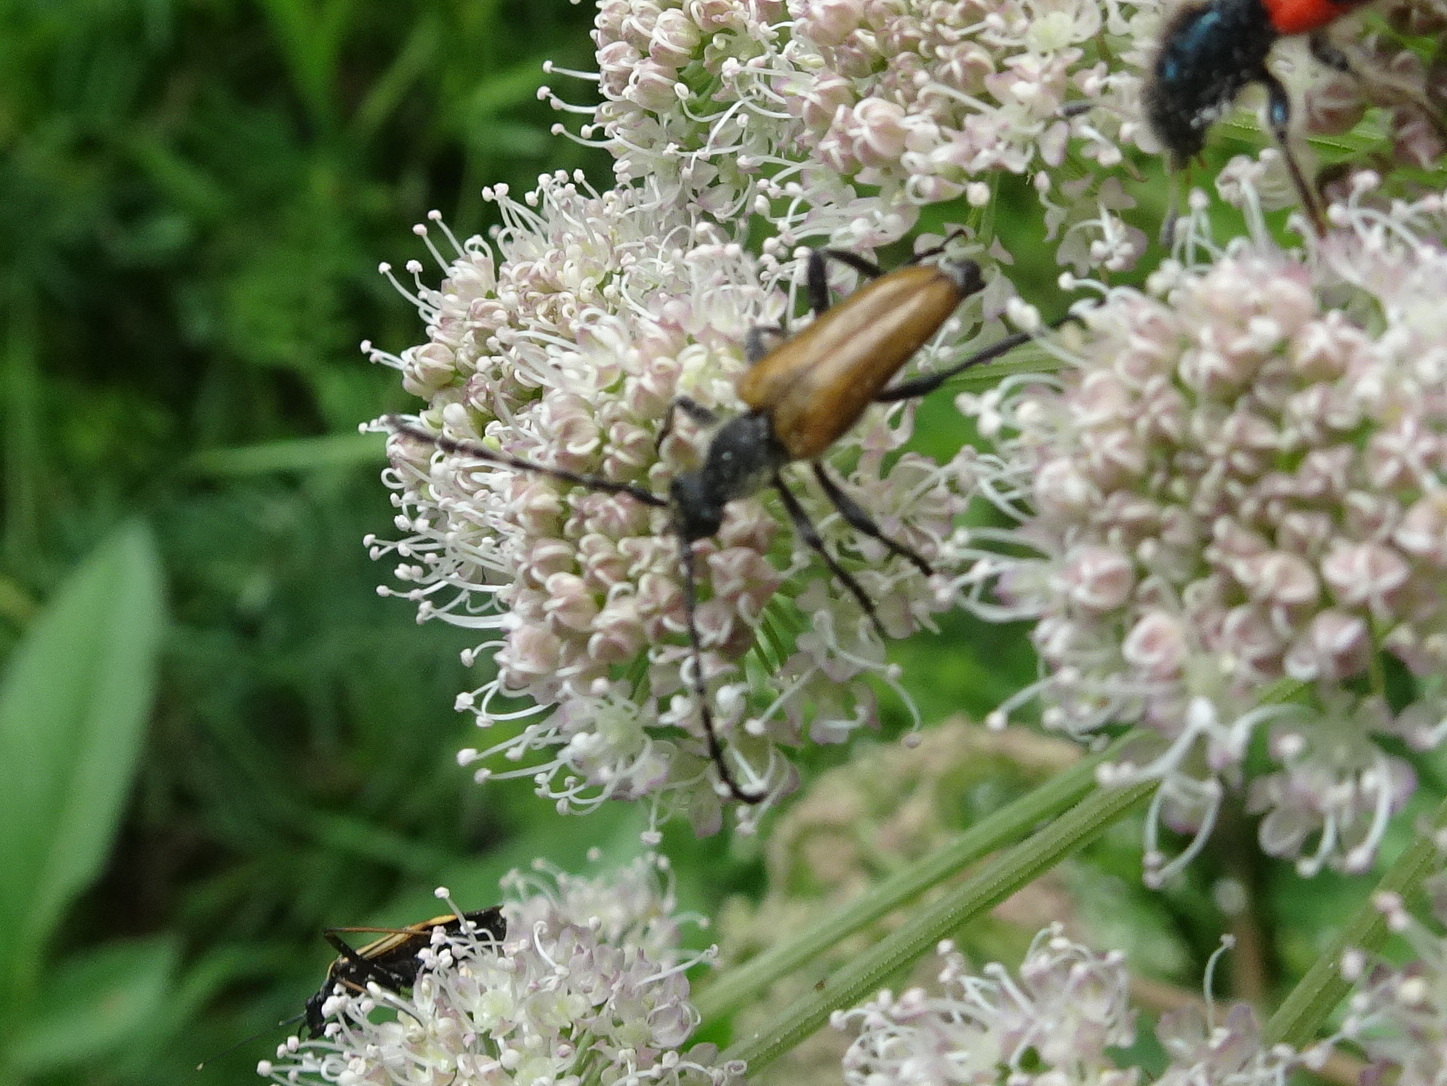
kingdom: Animalia
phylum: Arthropoda
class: Insecta
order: Coleoptera
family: Cerambycidae
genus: Anastrangalia
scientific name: Anastrangalia sanguinolenta
